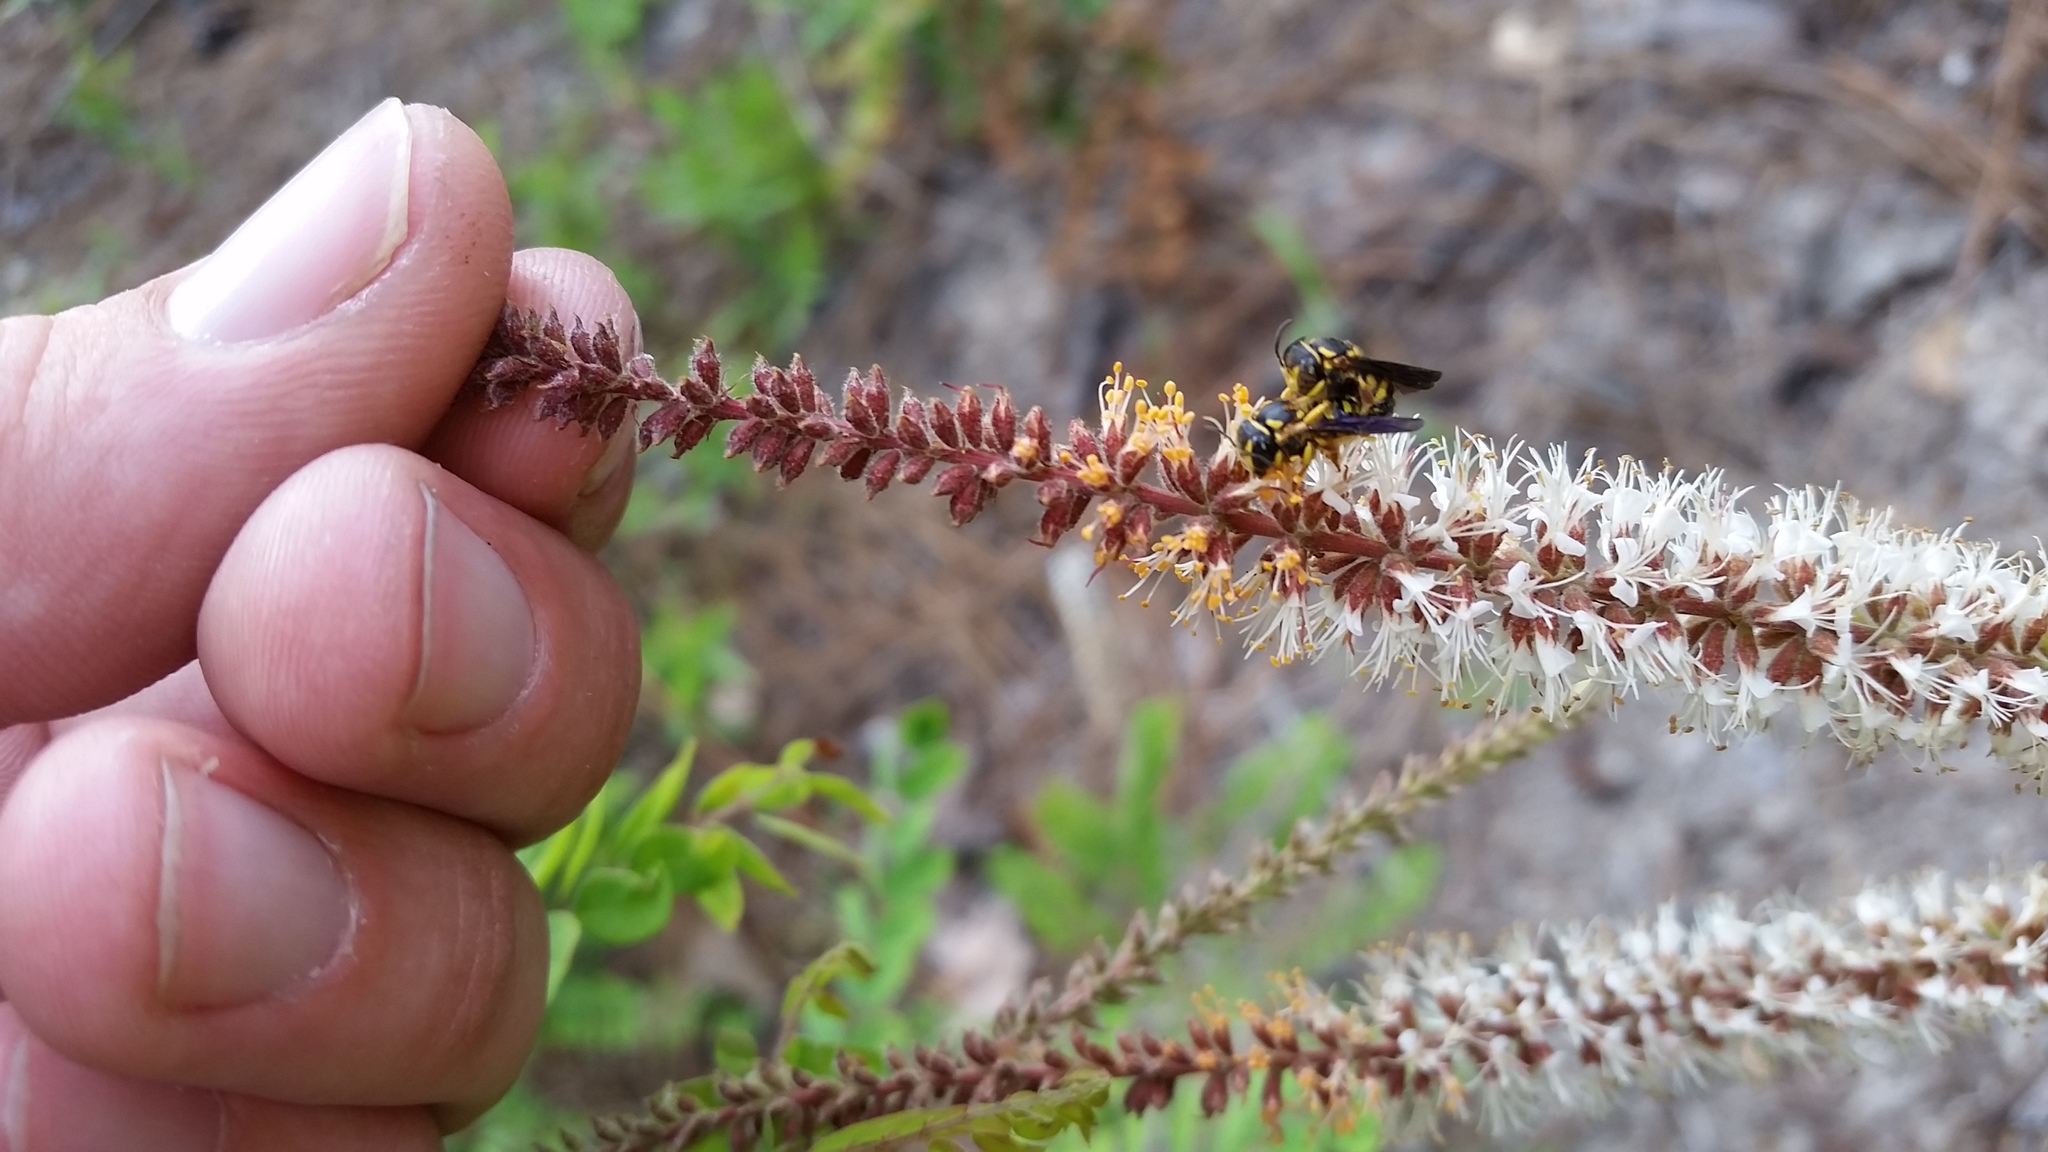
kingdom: Animalia
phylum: Arthropoda
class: Insecta
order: Hymenoptera
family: Megachilidae
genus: Anthidiellum
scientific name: Anthidiellum notatum
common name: Northern rotund-resin bee
